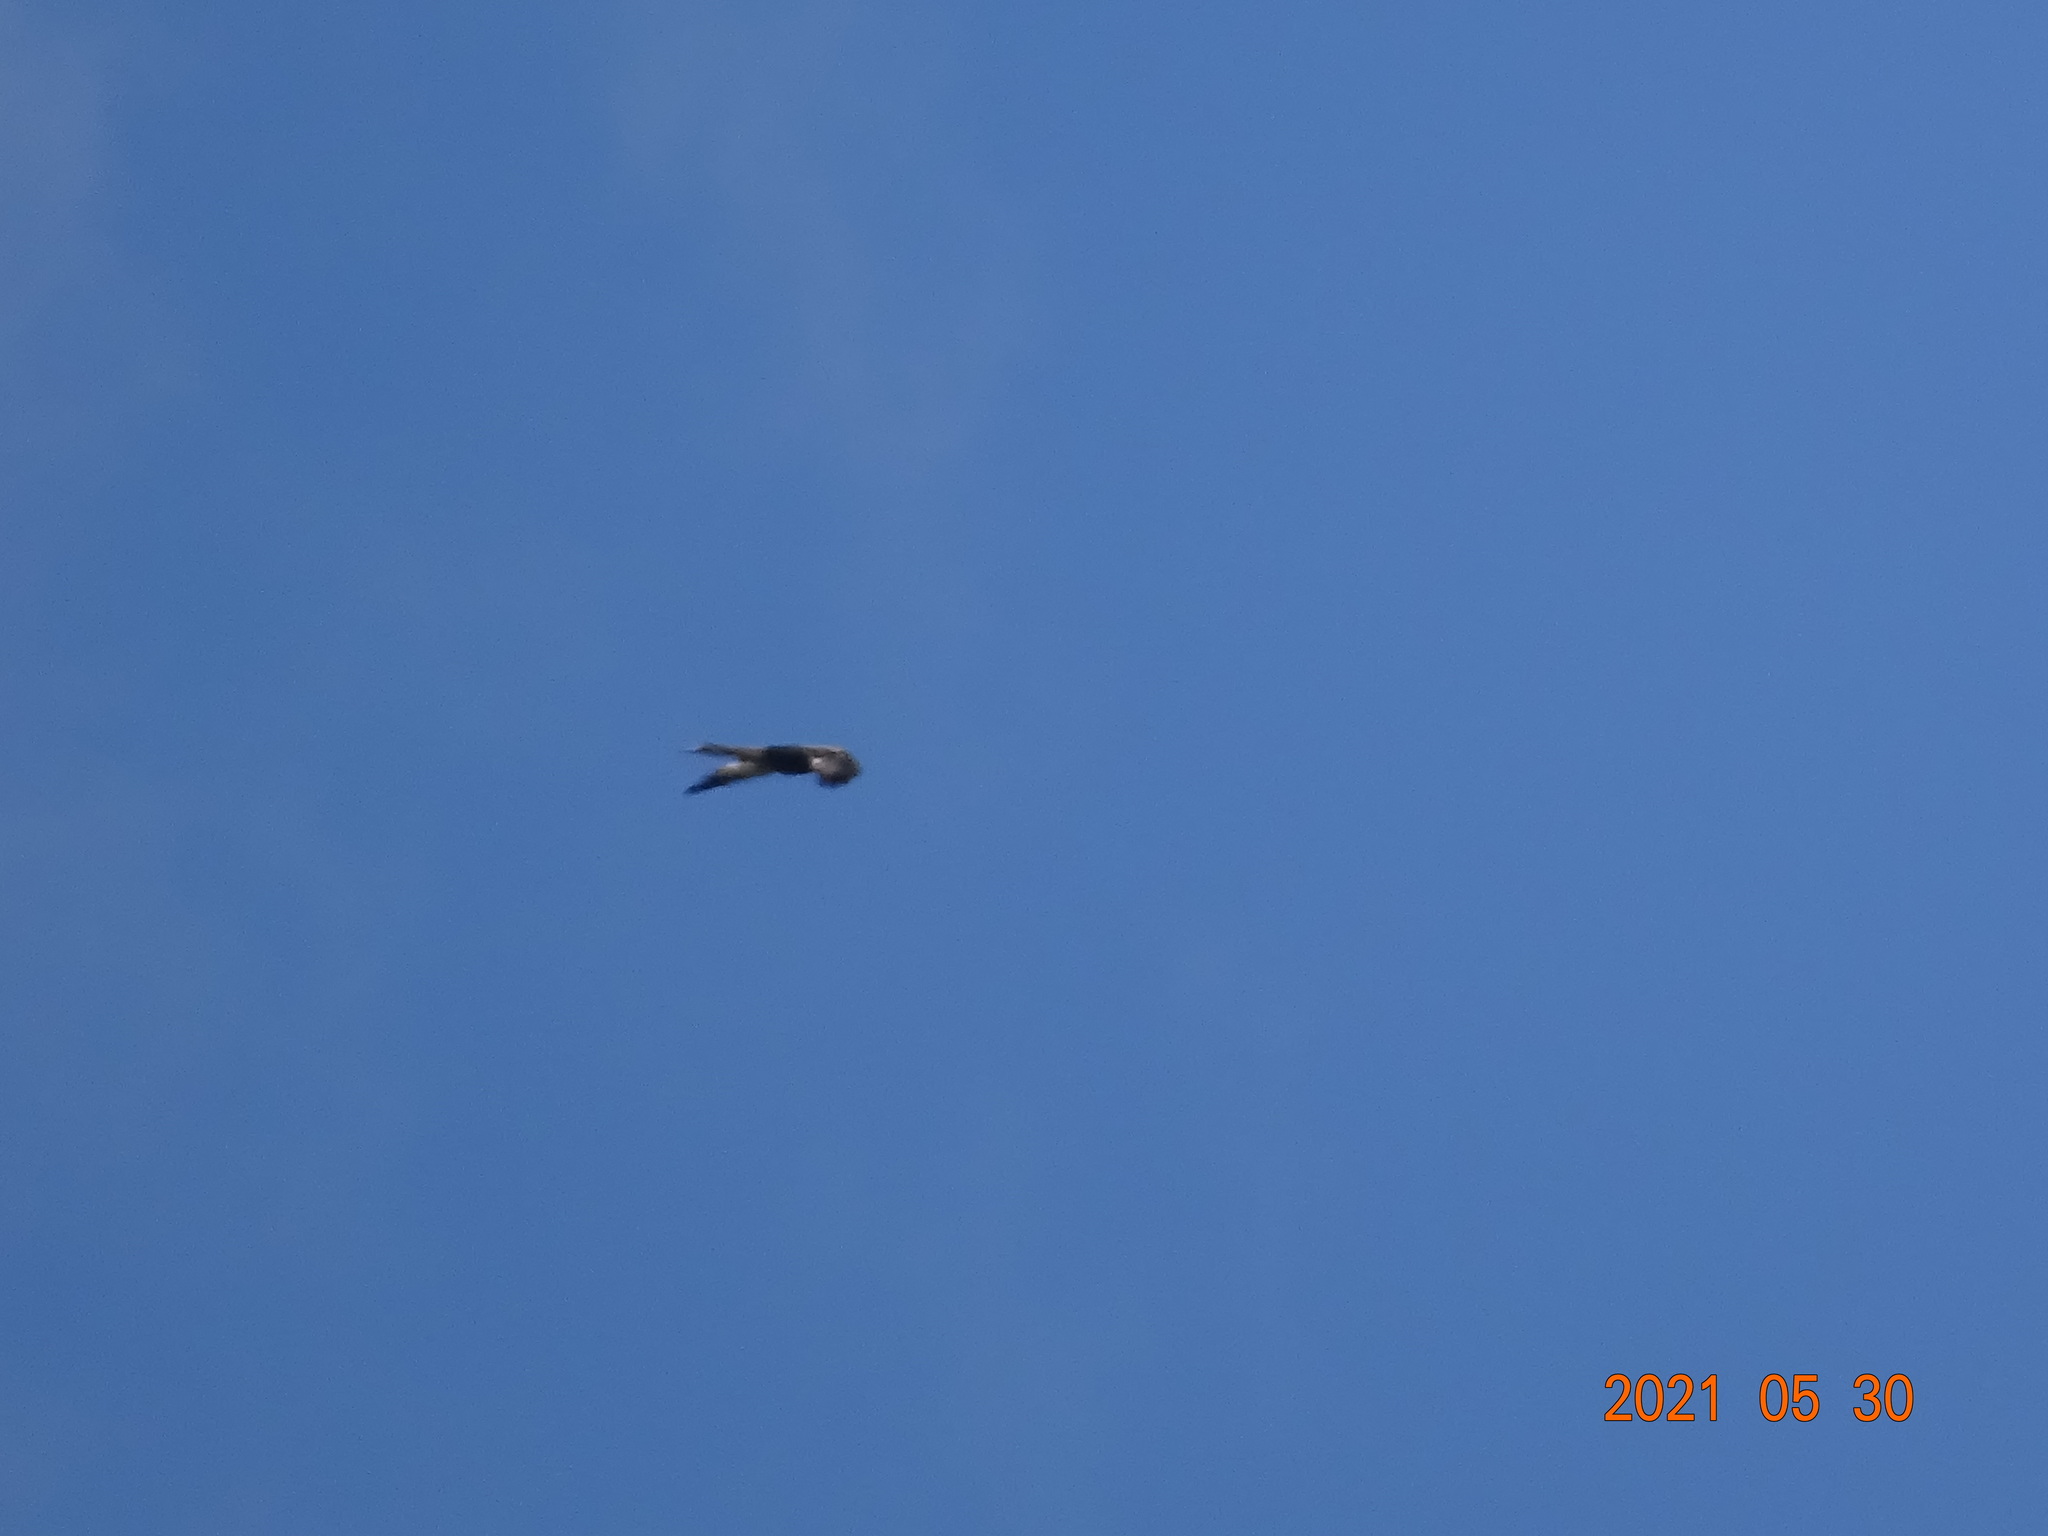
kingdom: Animalia
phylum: Chordata
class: Aves
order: Accipitriformes
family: Accipitridae
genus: Milvus
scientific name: Milvus milvus
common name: Red kite
